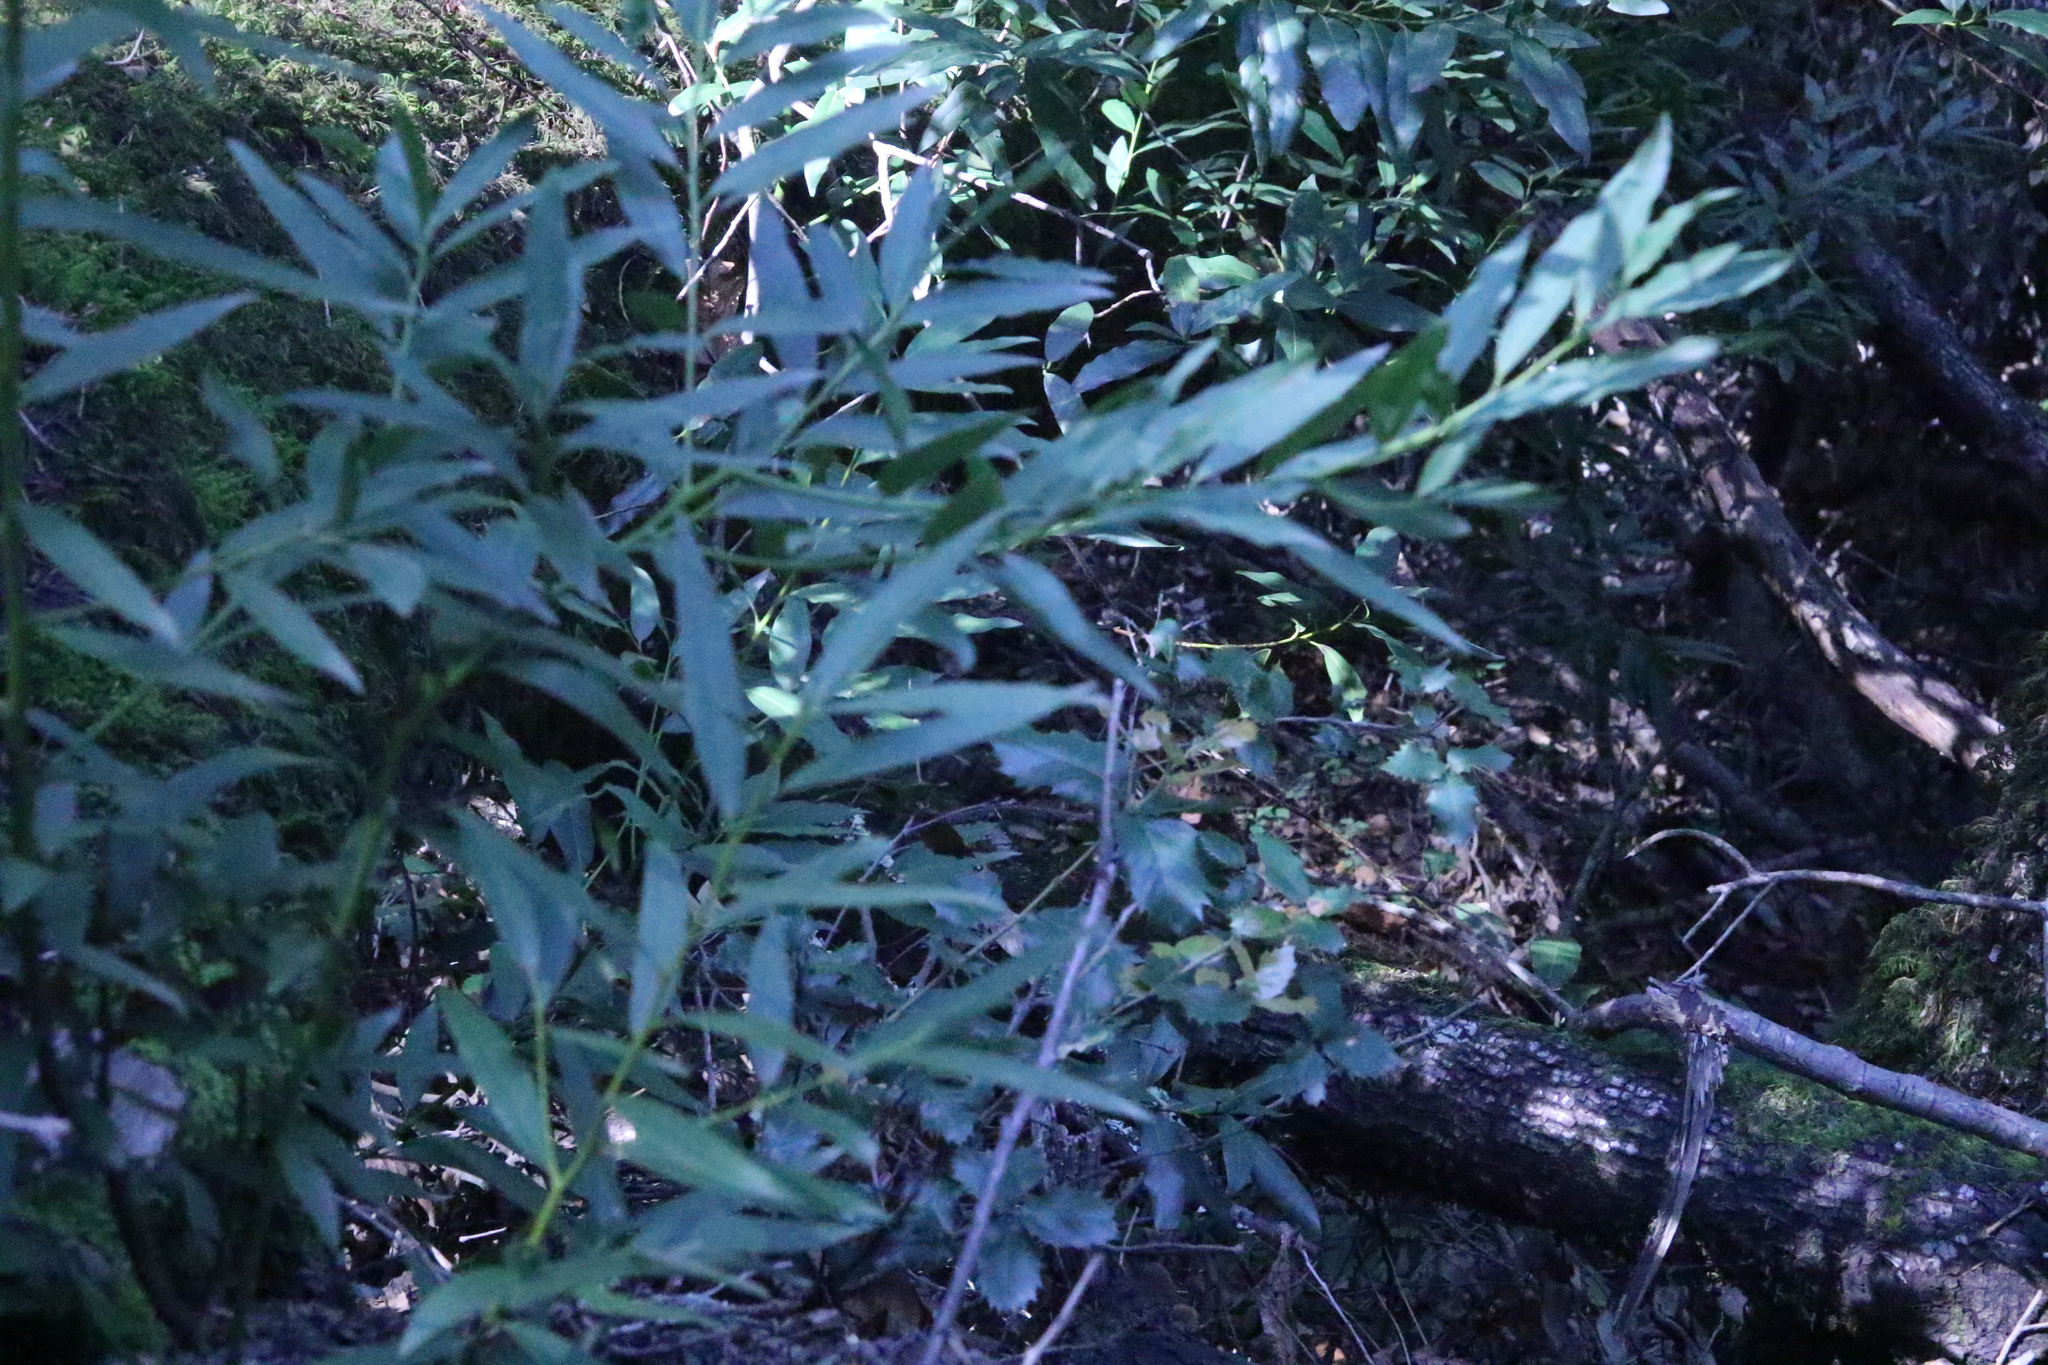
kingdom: Plantae
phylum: Tracheophyta
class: Magnoliopsida
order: Laurales
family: Lauraceae
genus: Umbellularia
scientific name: Umbellularia californica
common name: California bay
